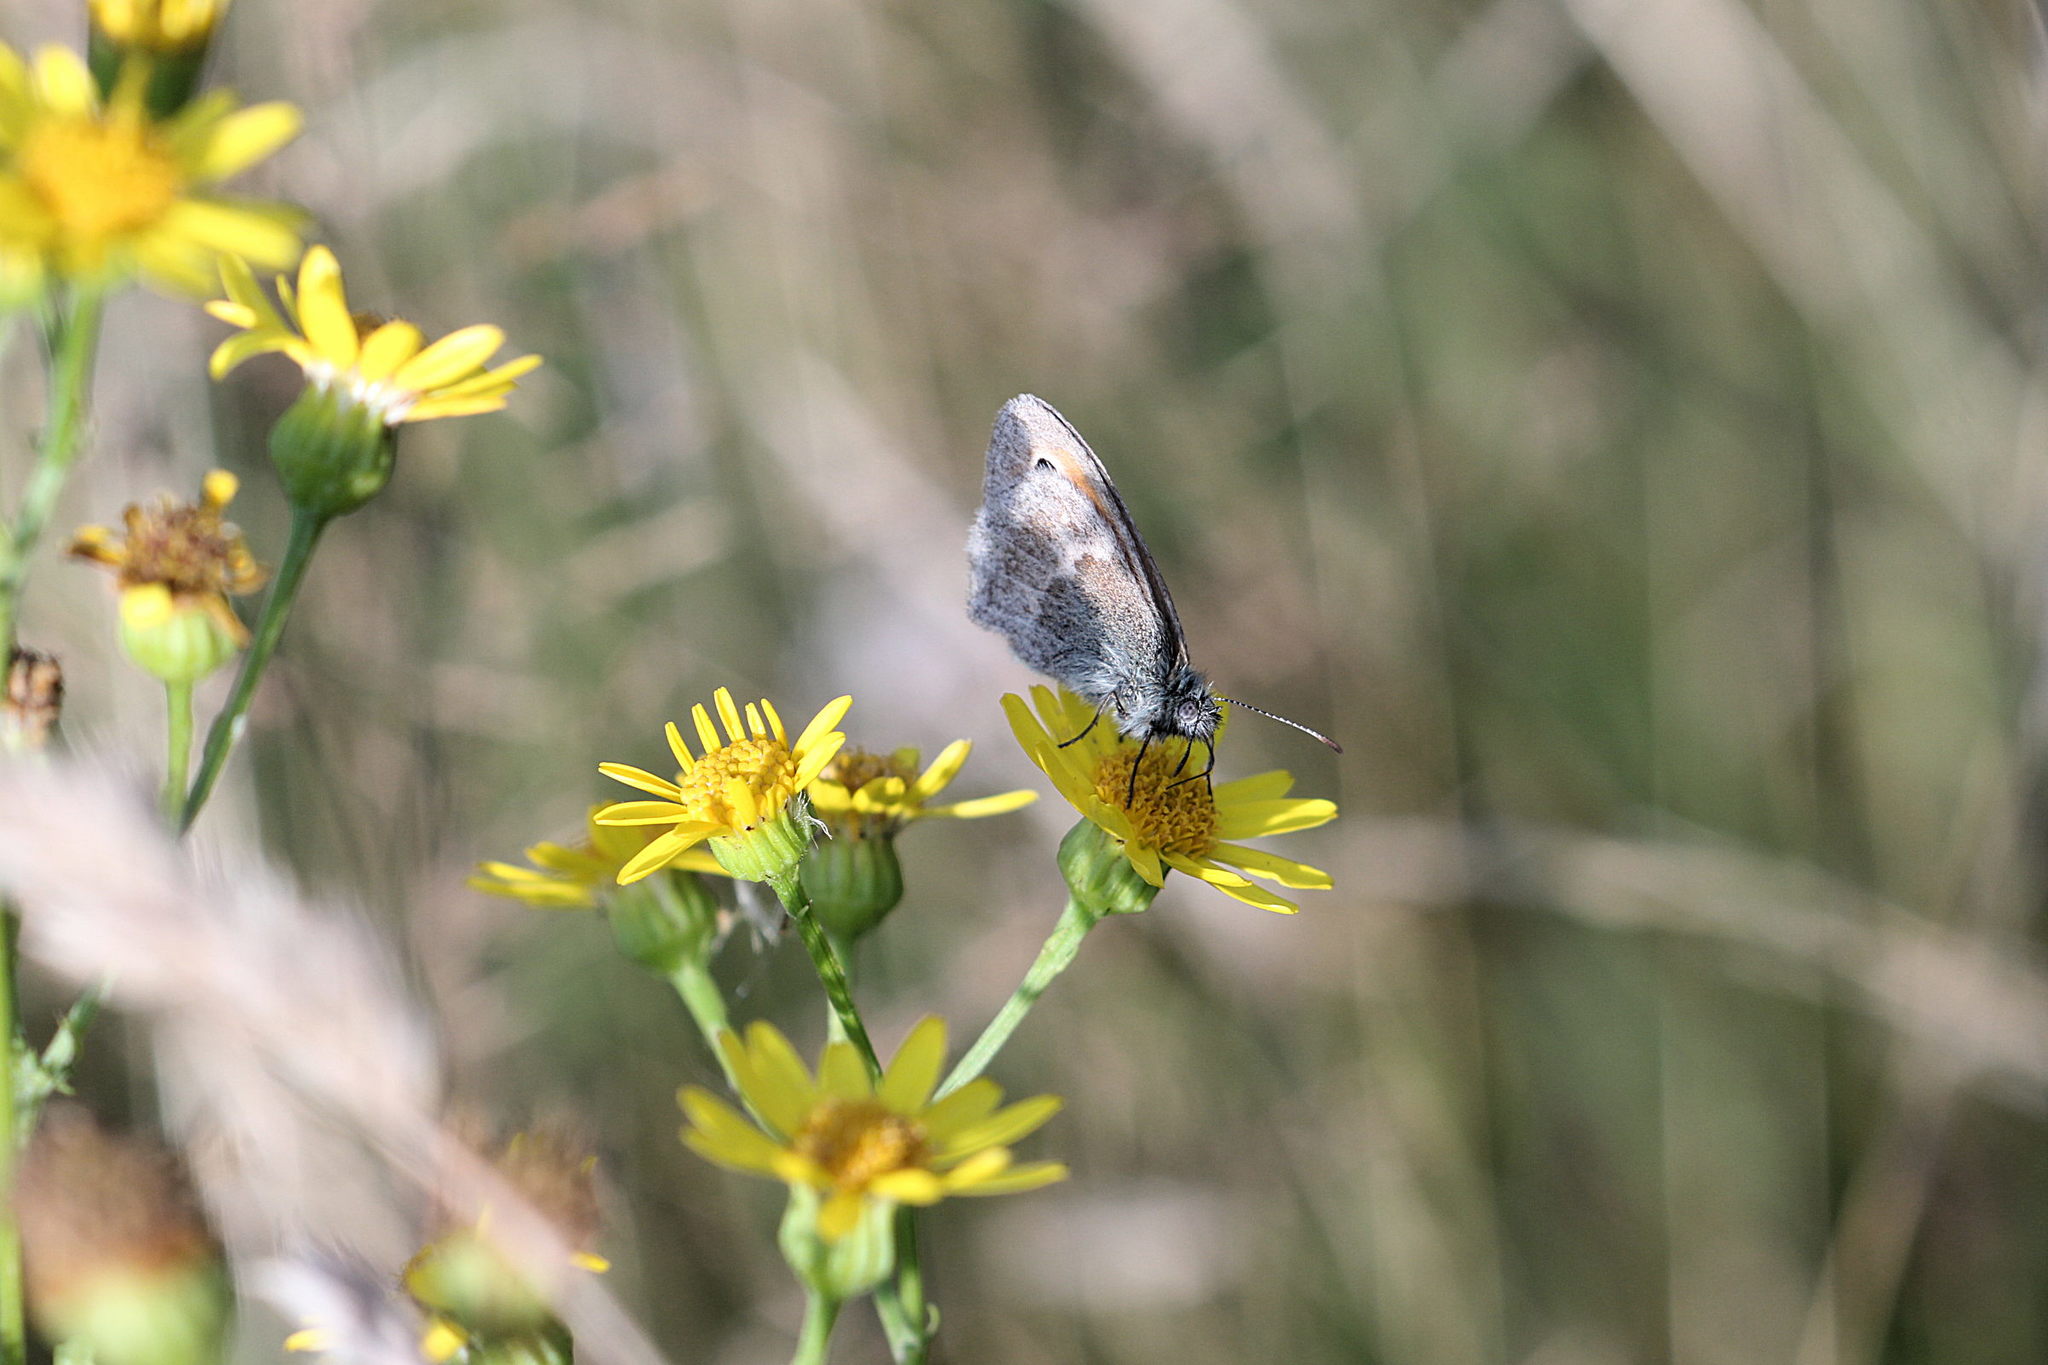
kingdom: Animalia
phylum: Arthropoda
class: Insecta
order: Lepidoptera
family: Nymphalidae
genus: Coenonympha
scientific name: Coenonympha pamphilus
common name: Small heath
